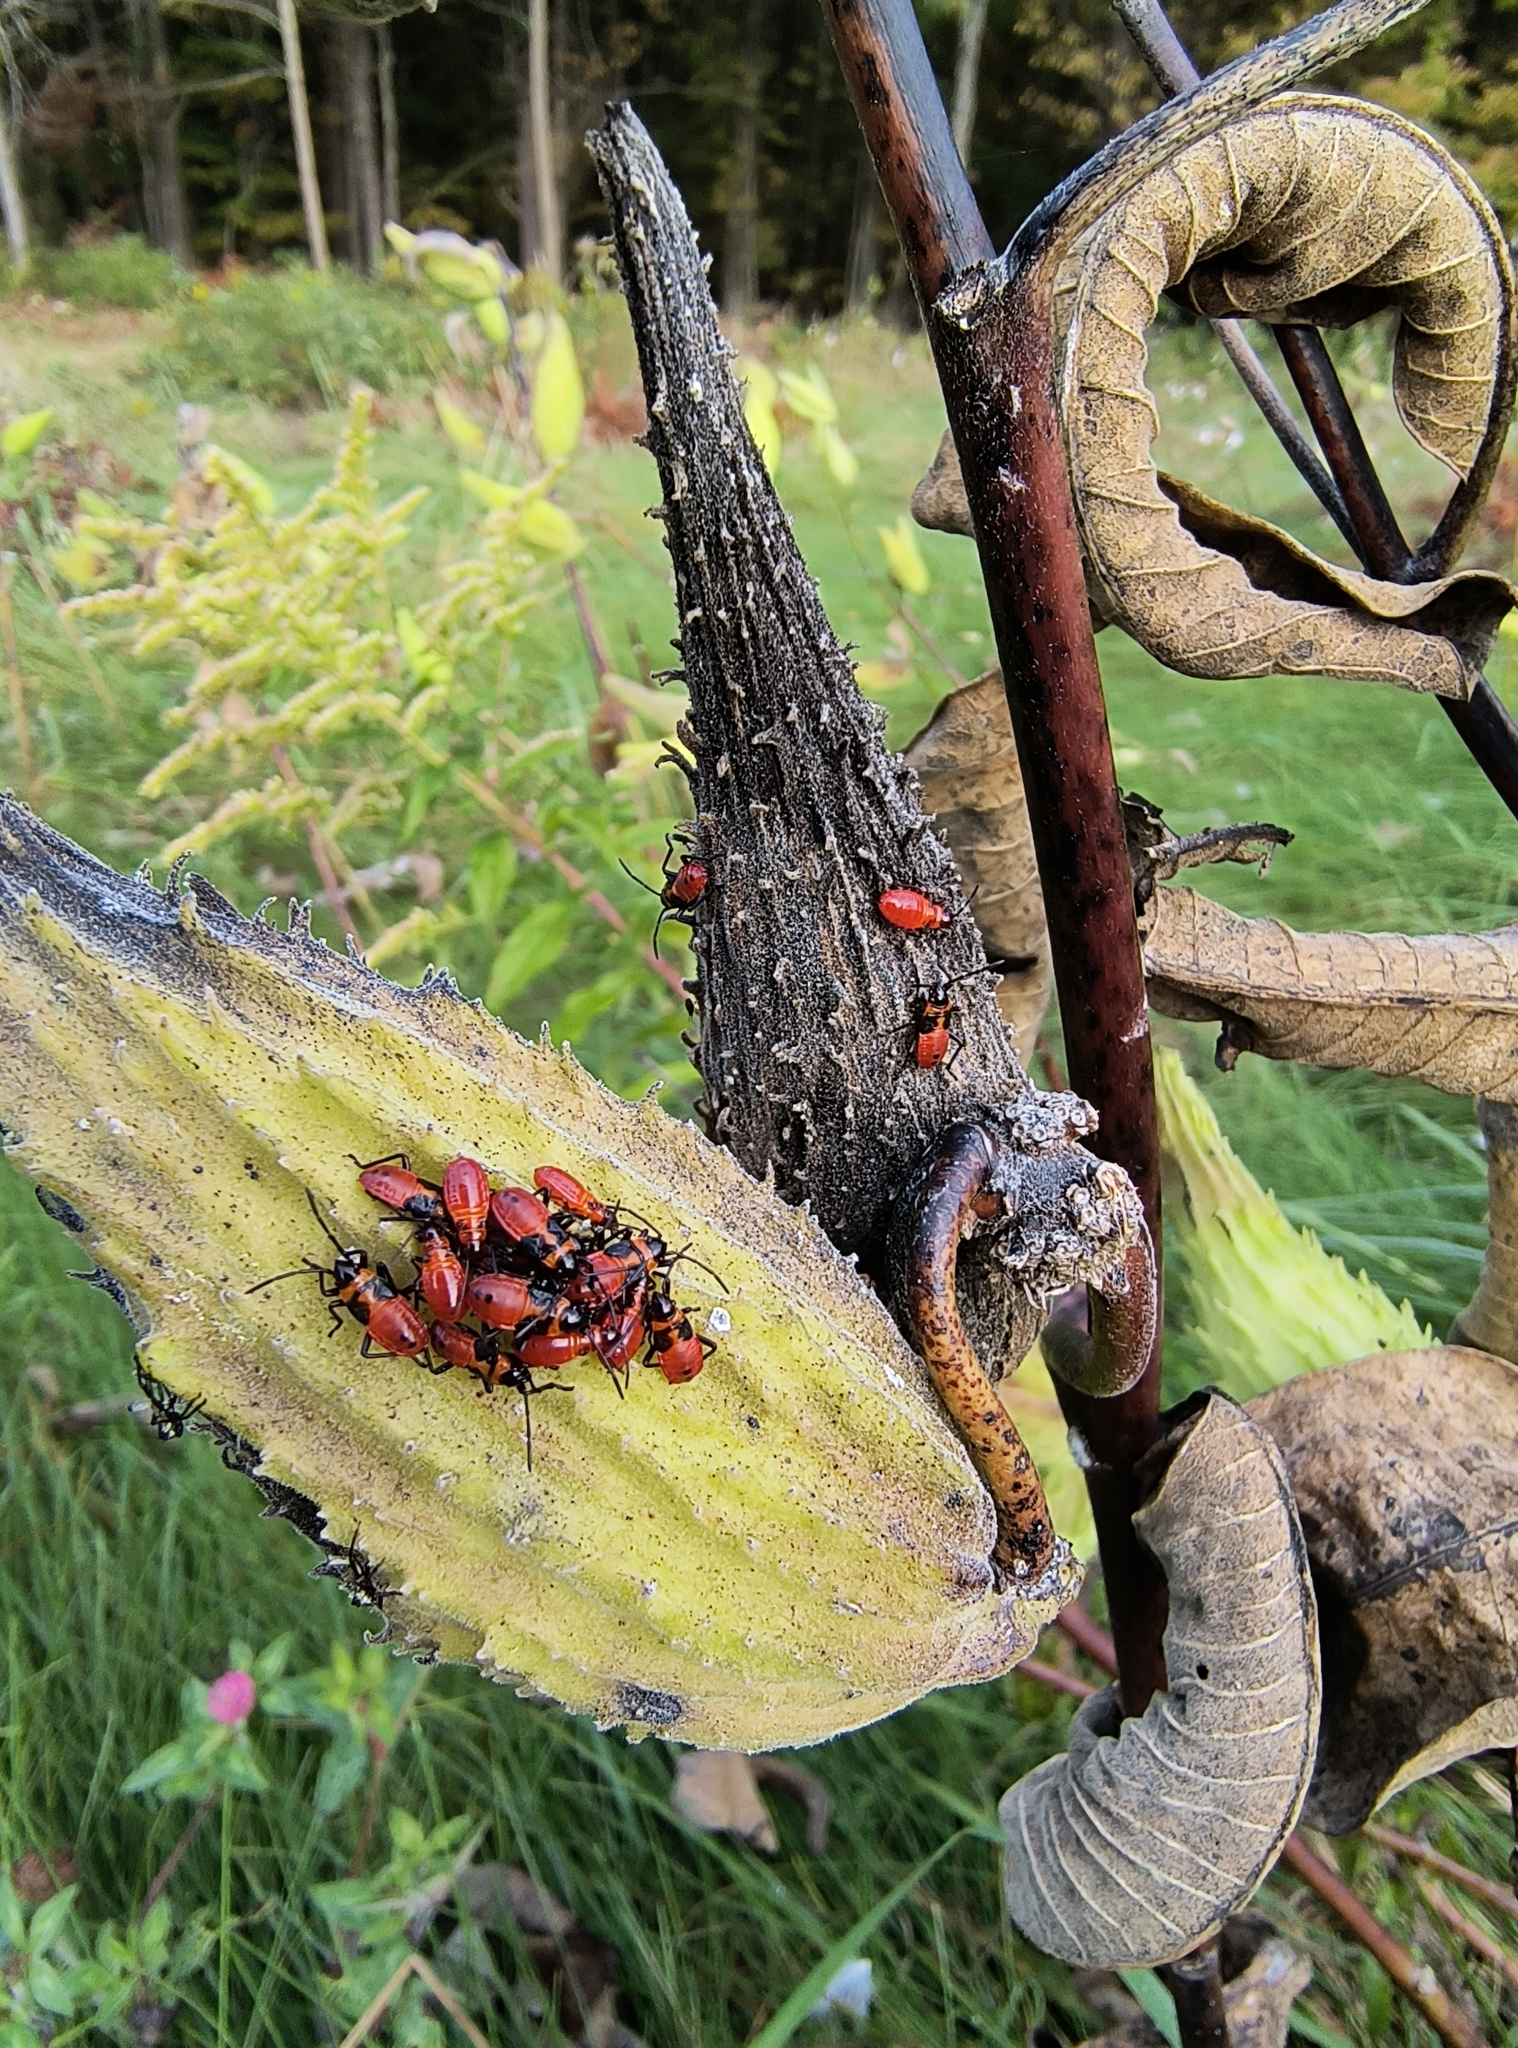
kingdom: Animalia
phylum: Arthropoda
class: Insecta
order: Hemiptera
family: Lygaeidae
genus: Oncopeltus
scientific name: Oncopeltus fasciatus
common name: Large milkweed bug
